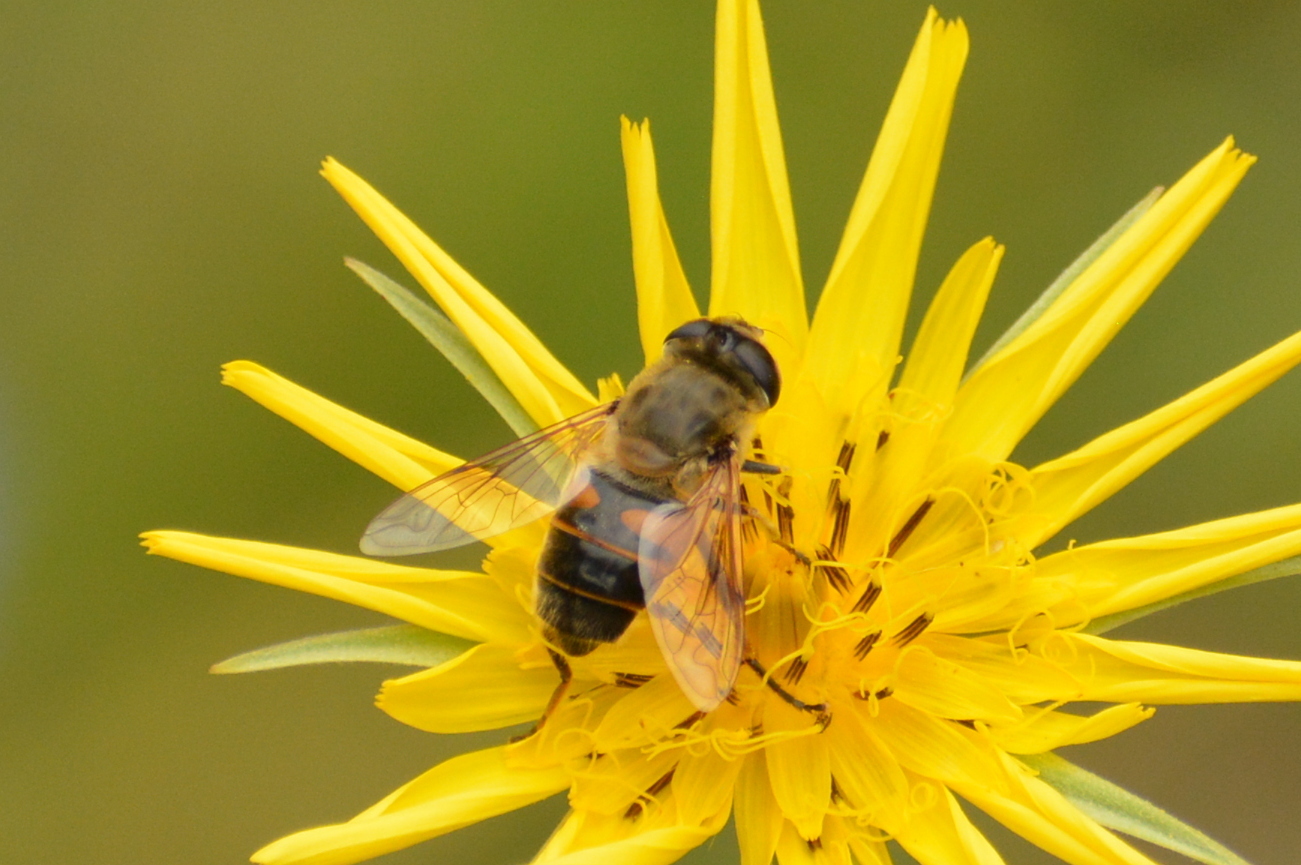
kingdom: Animalia
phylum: Arthropoda
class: Insecta
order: Diptera
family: Syrphidae
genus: Eristalis
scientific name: Eristalis tenax
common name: Drone fly
